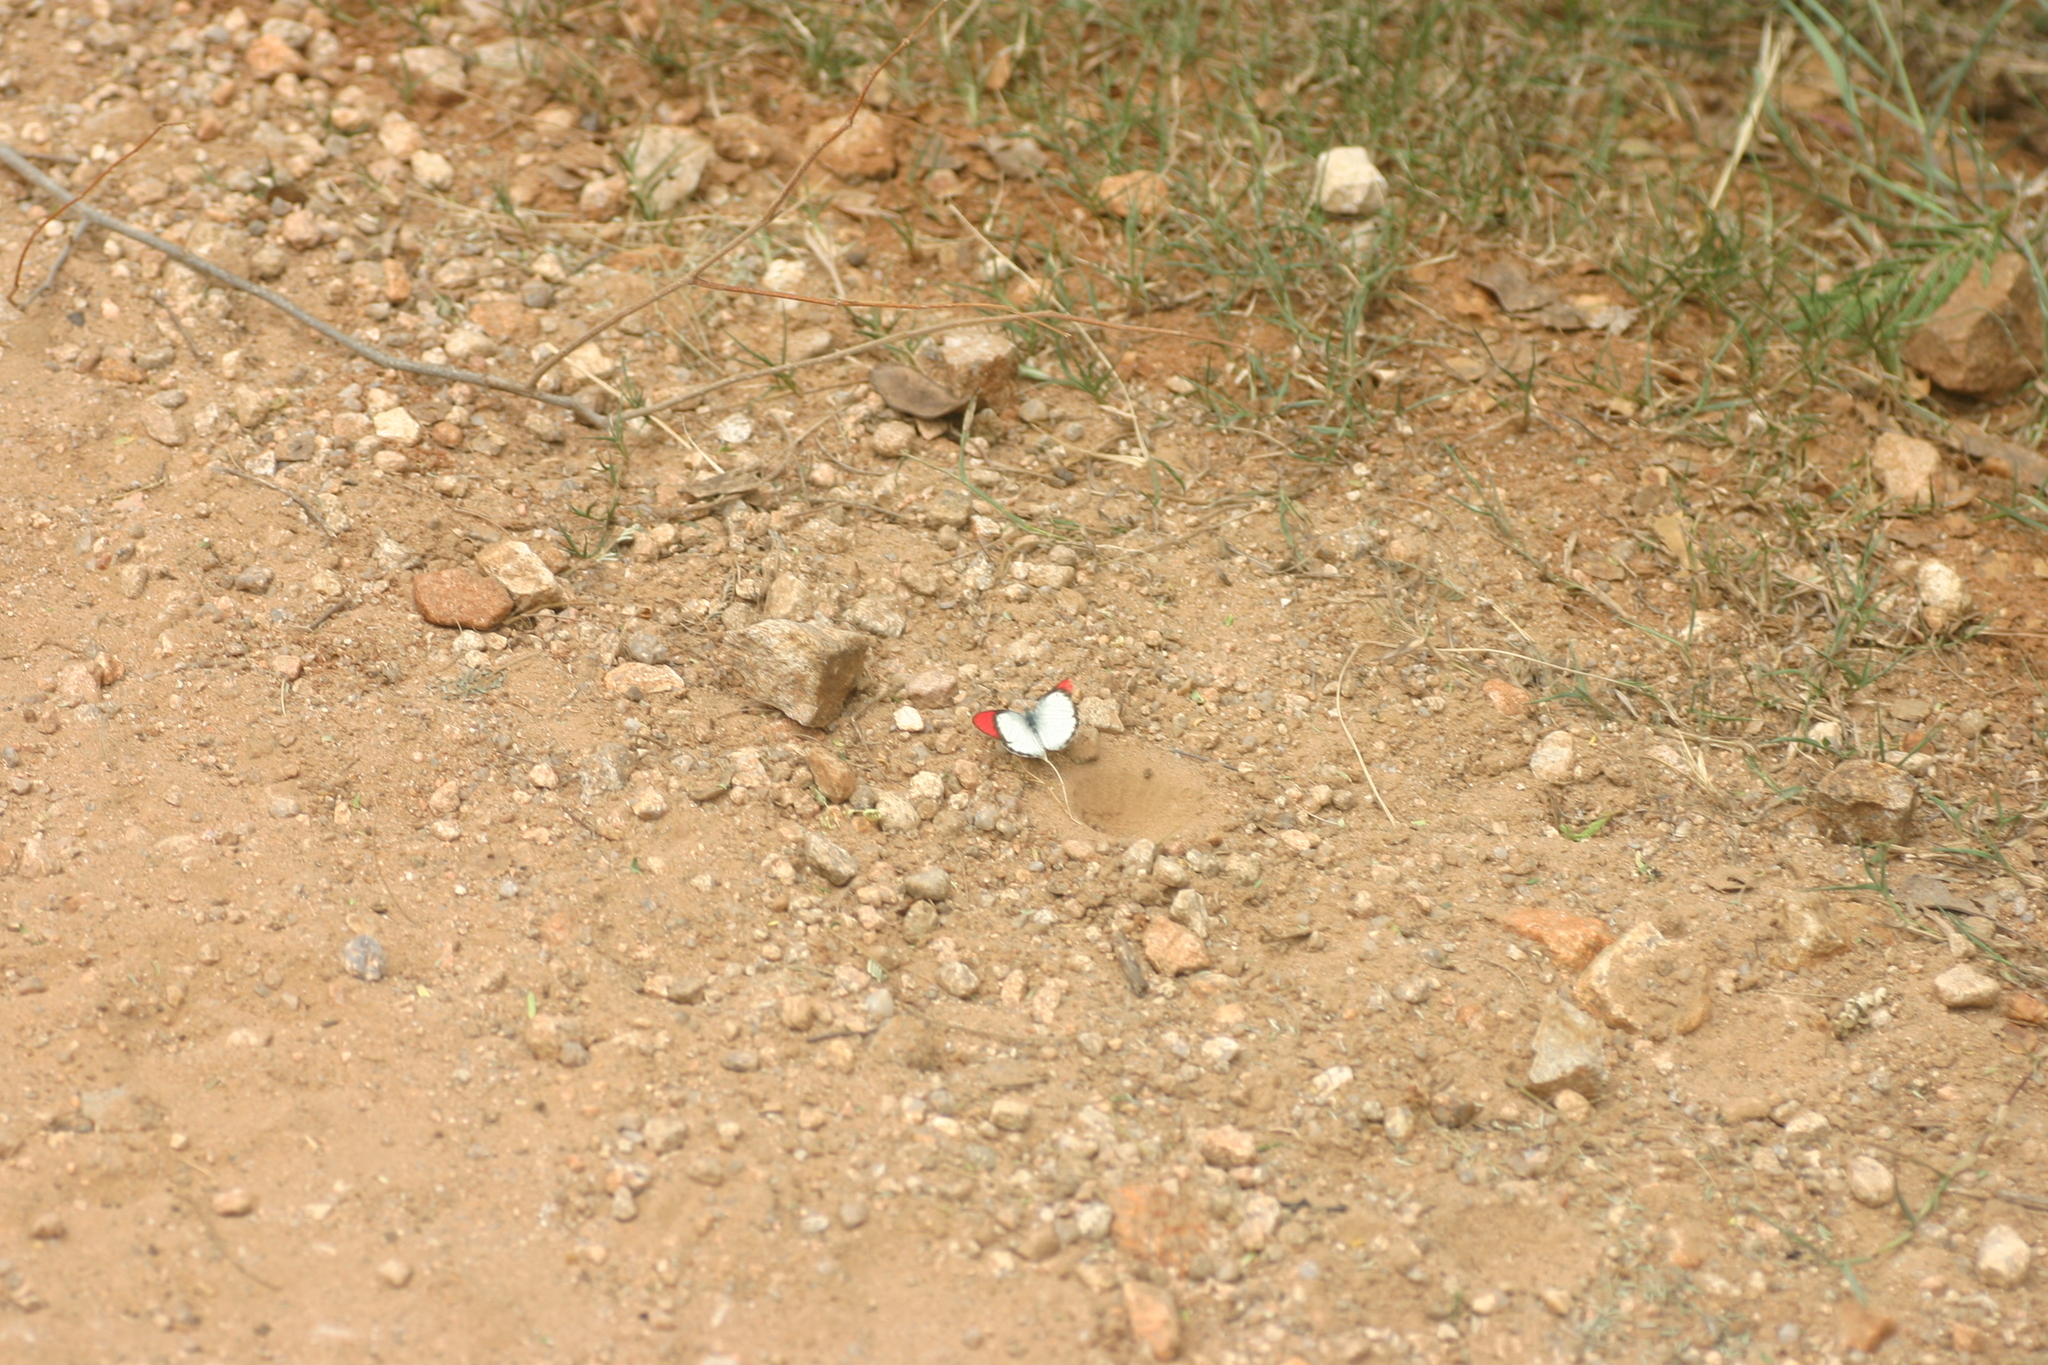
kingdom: Animalia
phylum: Arthropoda
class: Insecta
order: Lepidoptera
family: Pieridae
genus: Colotis
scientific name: Colotis danae
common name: Crimson tip
